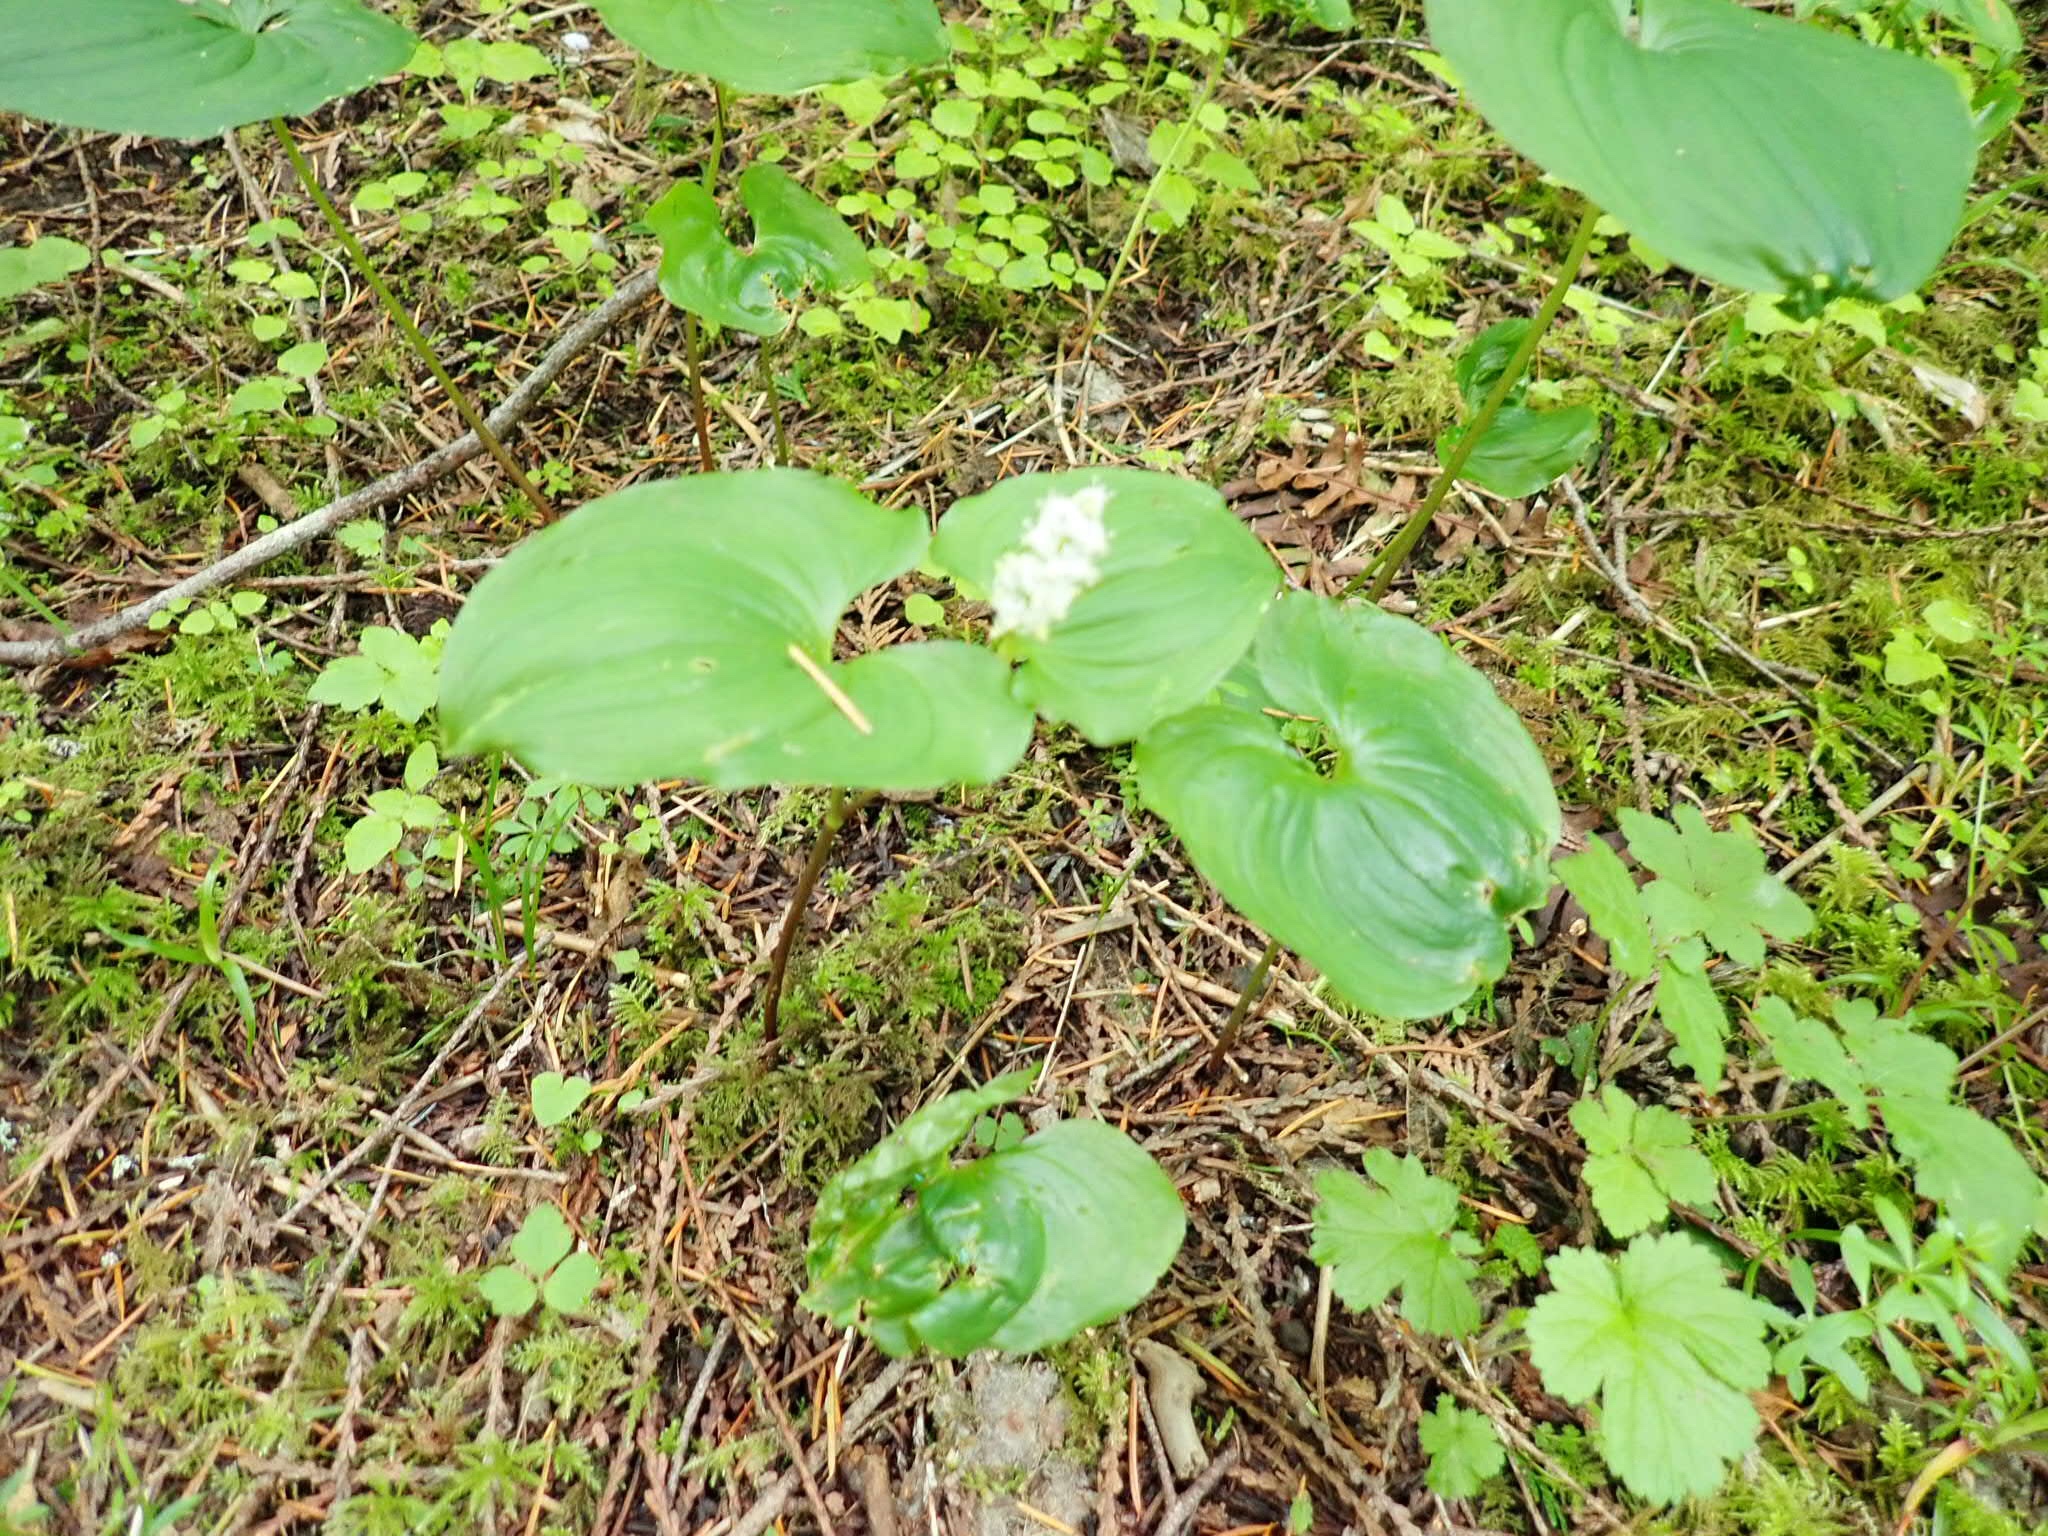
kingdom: Plantae
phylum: Tracheophyta
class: Liliopsida
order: Asparagales
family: Asparagaceae
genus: Maianthemum
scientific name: Maianthemum dilatatum
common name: False lily-of-the-valley
